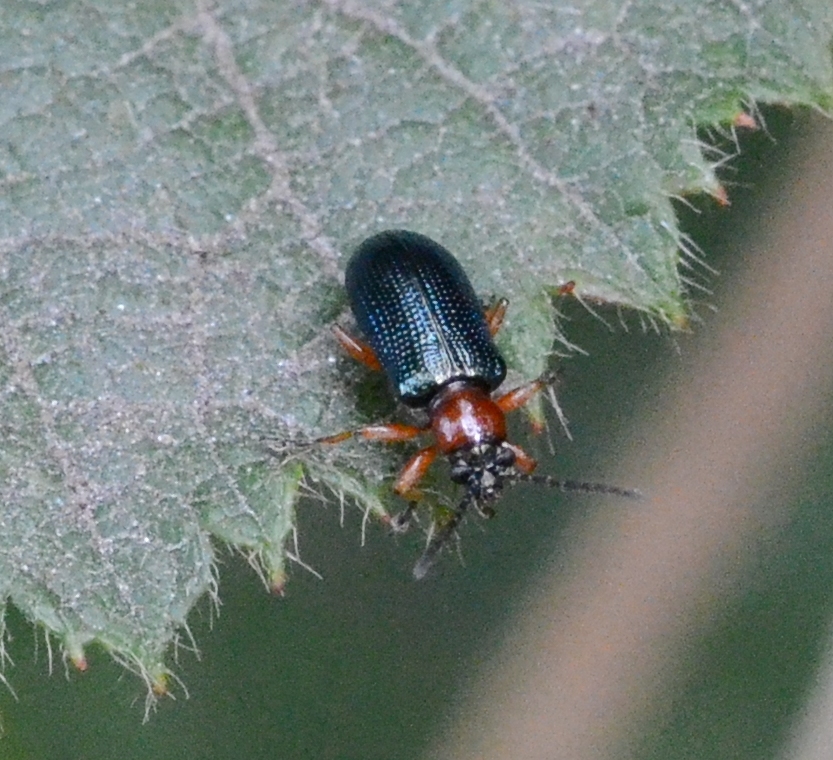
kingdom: Animalia
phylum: Arthropoda
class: Insecta
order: Coleoptera
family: Chrysomelidae
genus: Oulema
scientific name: Oulema
